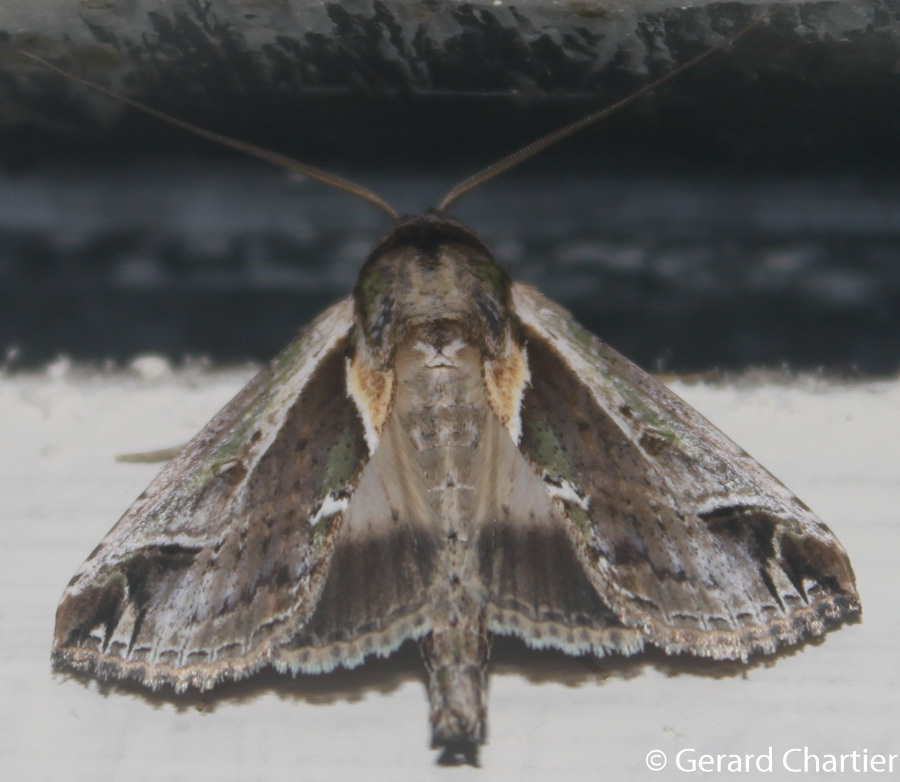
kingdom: Animalia
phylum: Arthropoda
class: Insecta
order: Lepidoptera
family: Nolidae
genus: Risoba
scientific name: Risoba diversipennis
